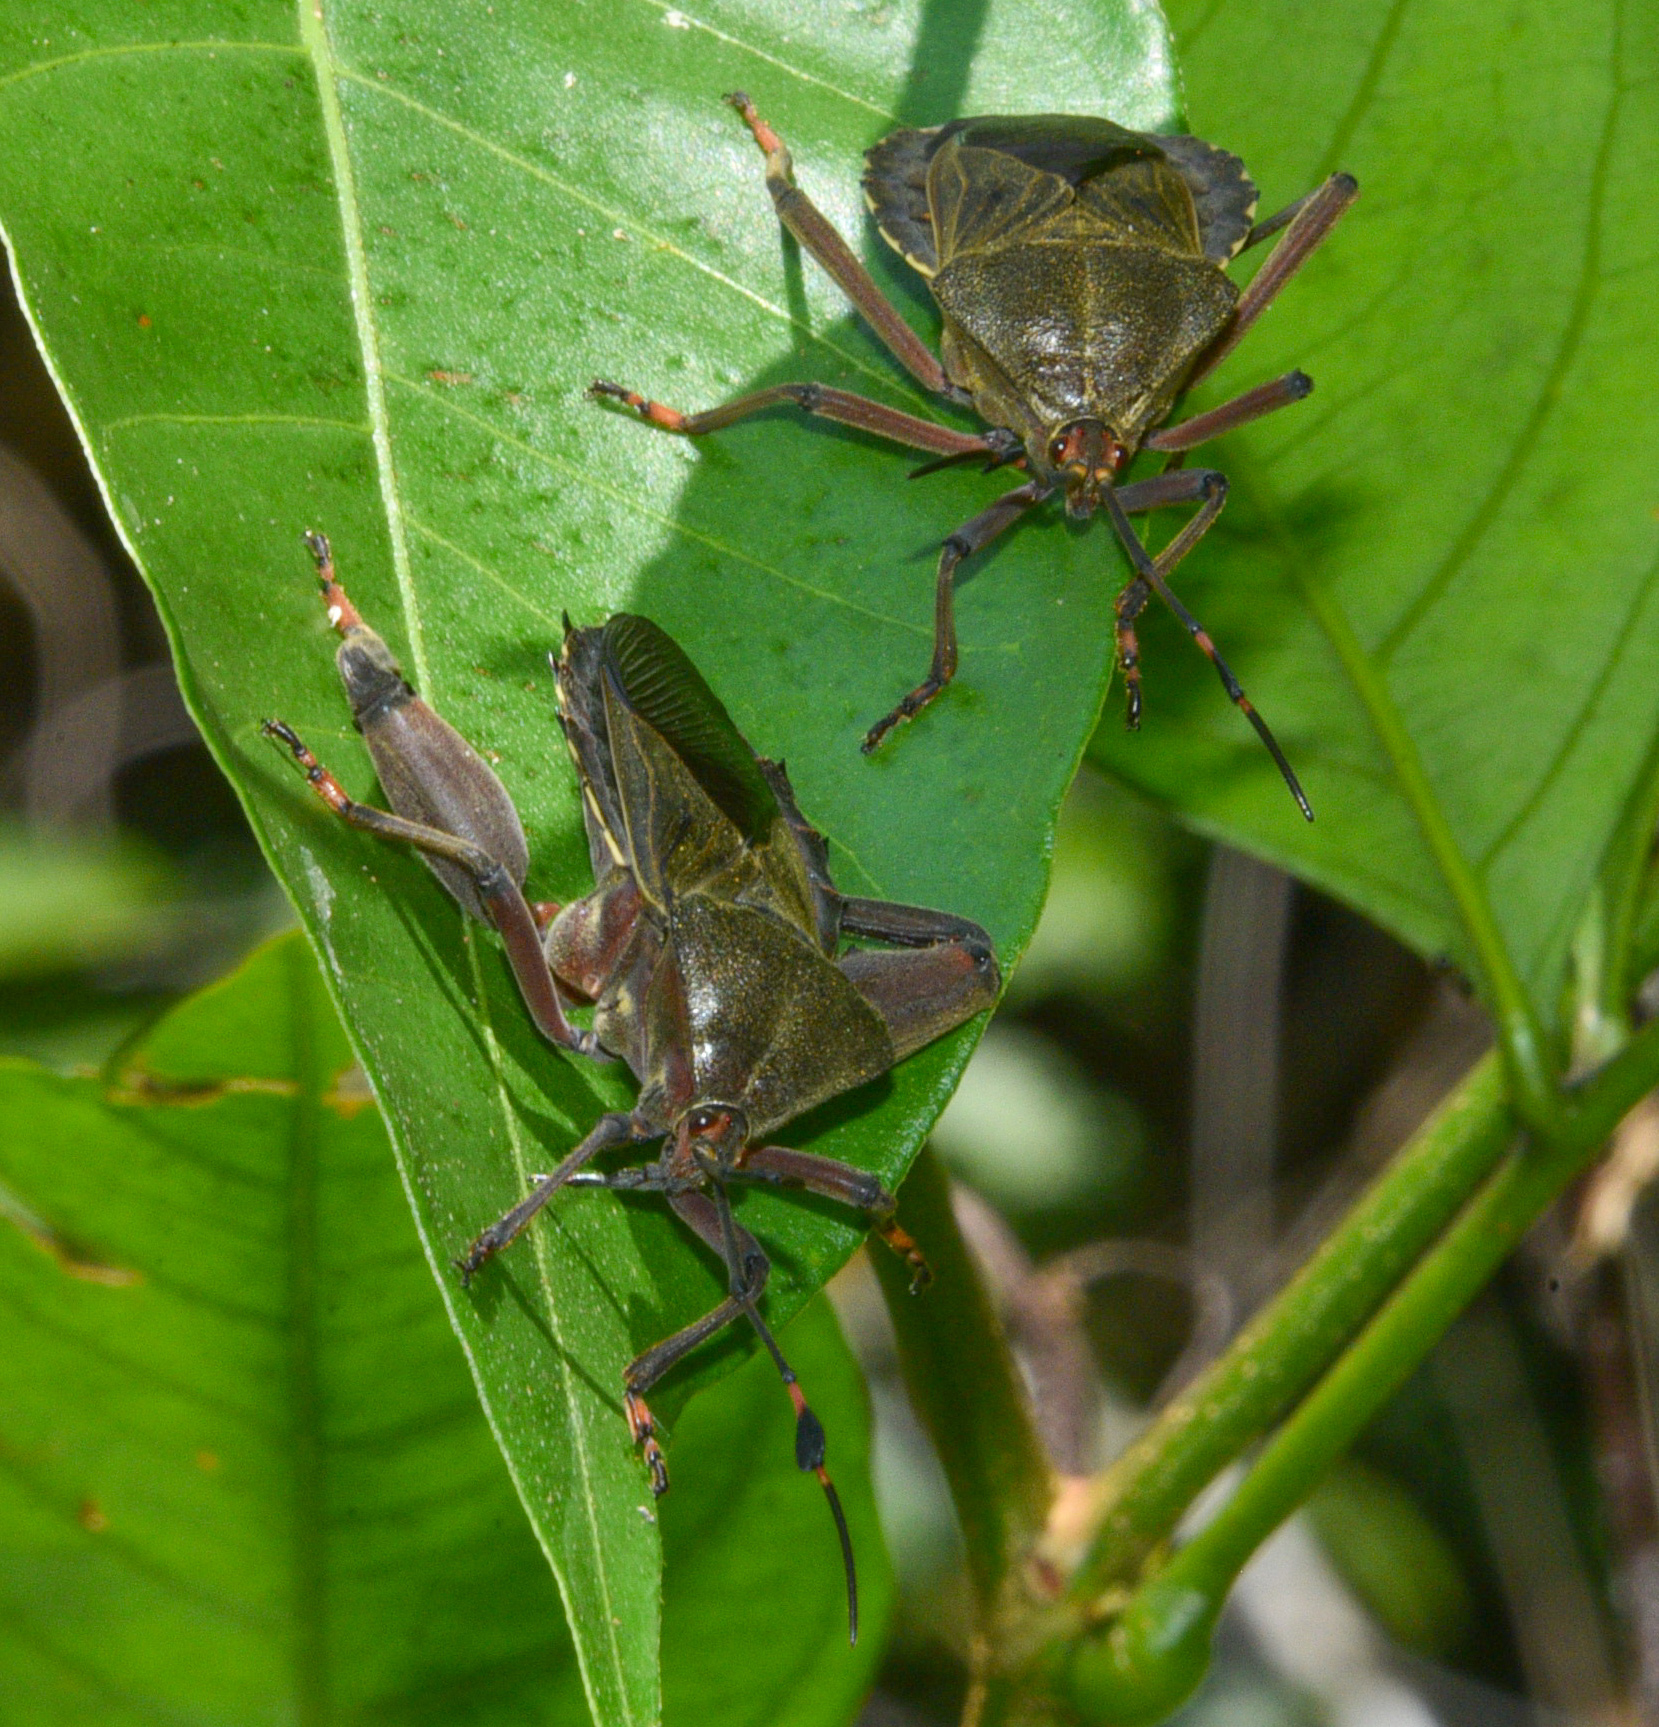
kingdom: Animalia
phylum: Arthropoda
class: Insecta
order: Hemiptera
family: Coreidae
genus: Pachylis
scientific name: Pachylis nervosus
